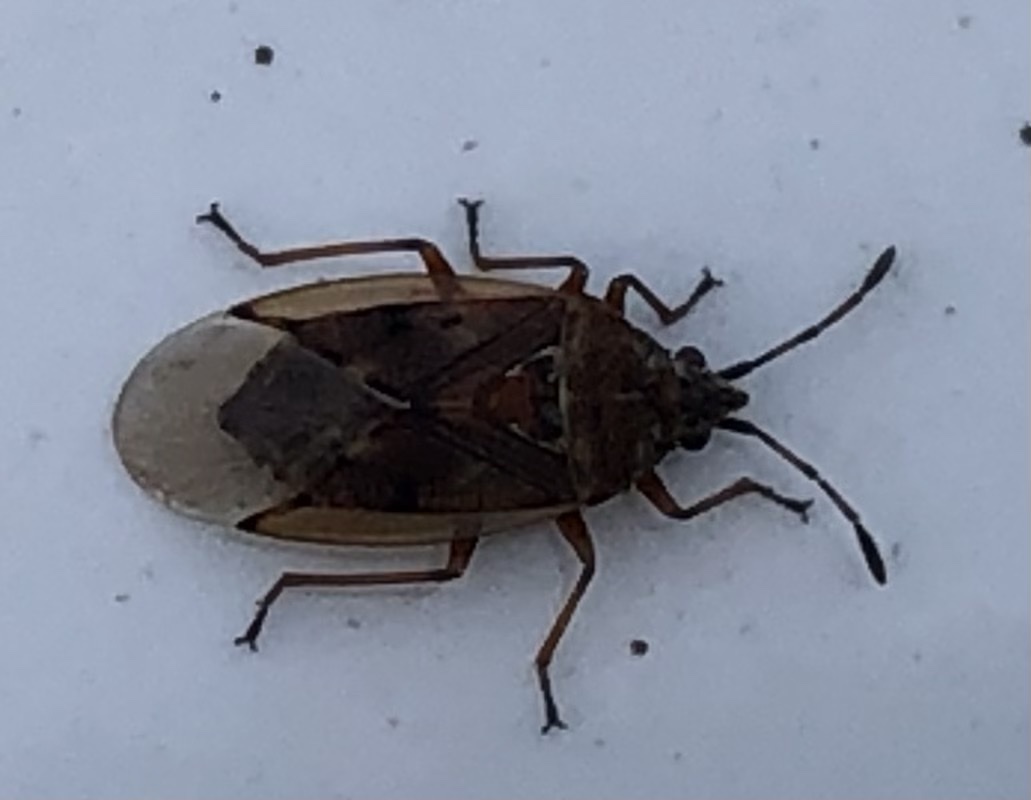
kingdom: Animalia
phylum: Arthropoda
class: Insecta
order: Hemiptera
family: Lygaeidae
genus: Kleidocerys
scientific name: Kleidocerys resedae
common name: Birch catkin bug
